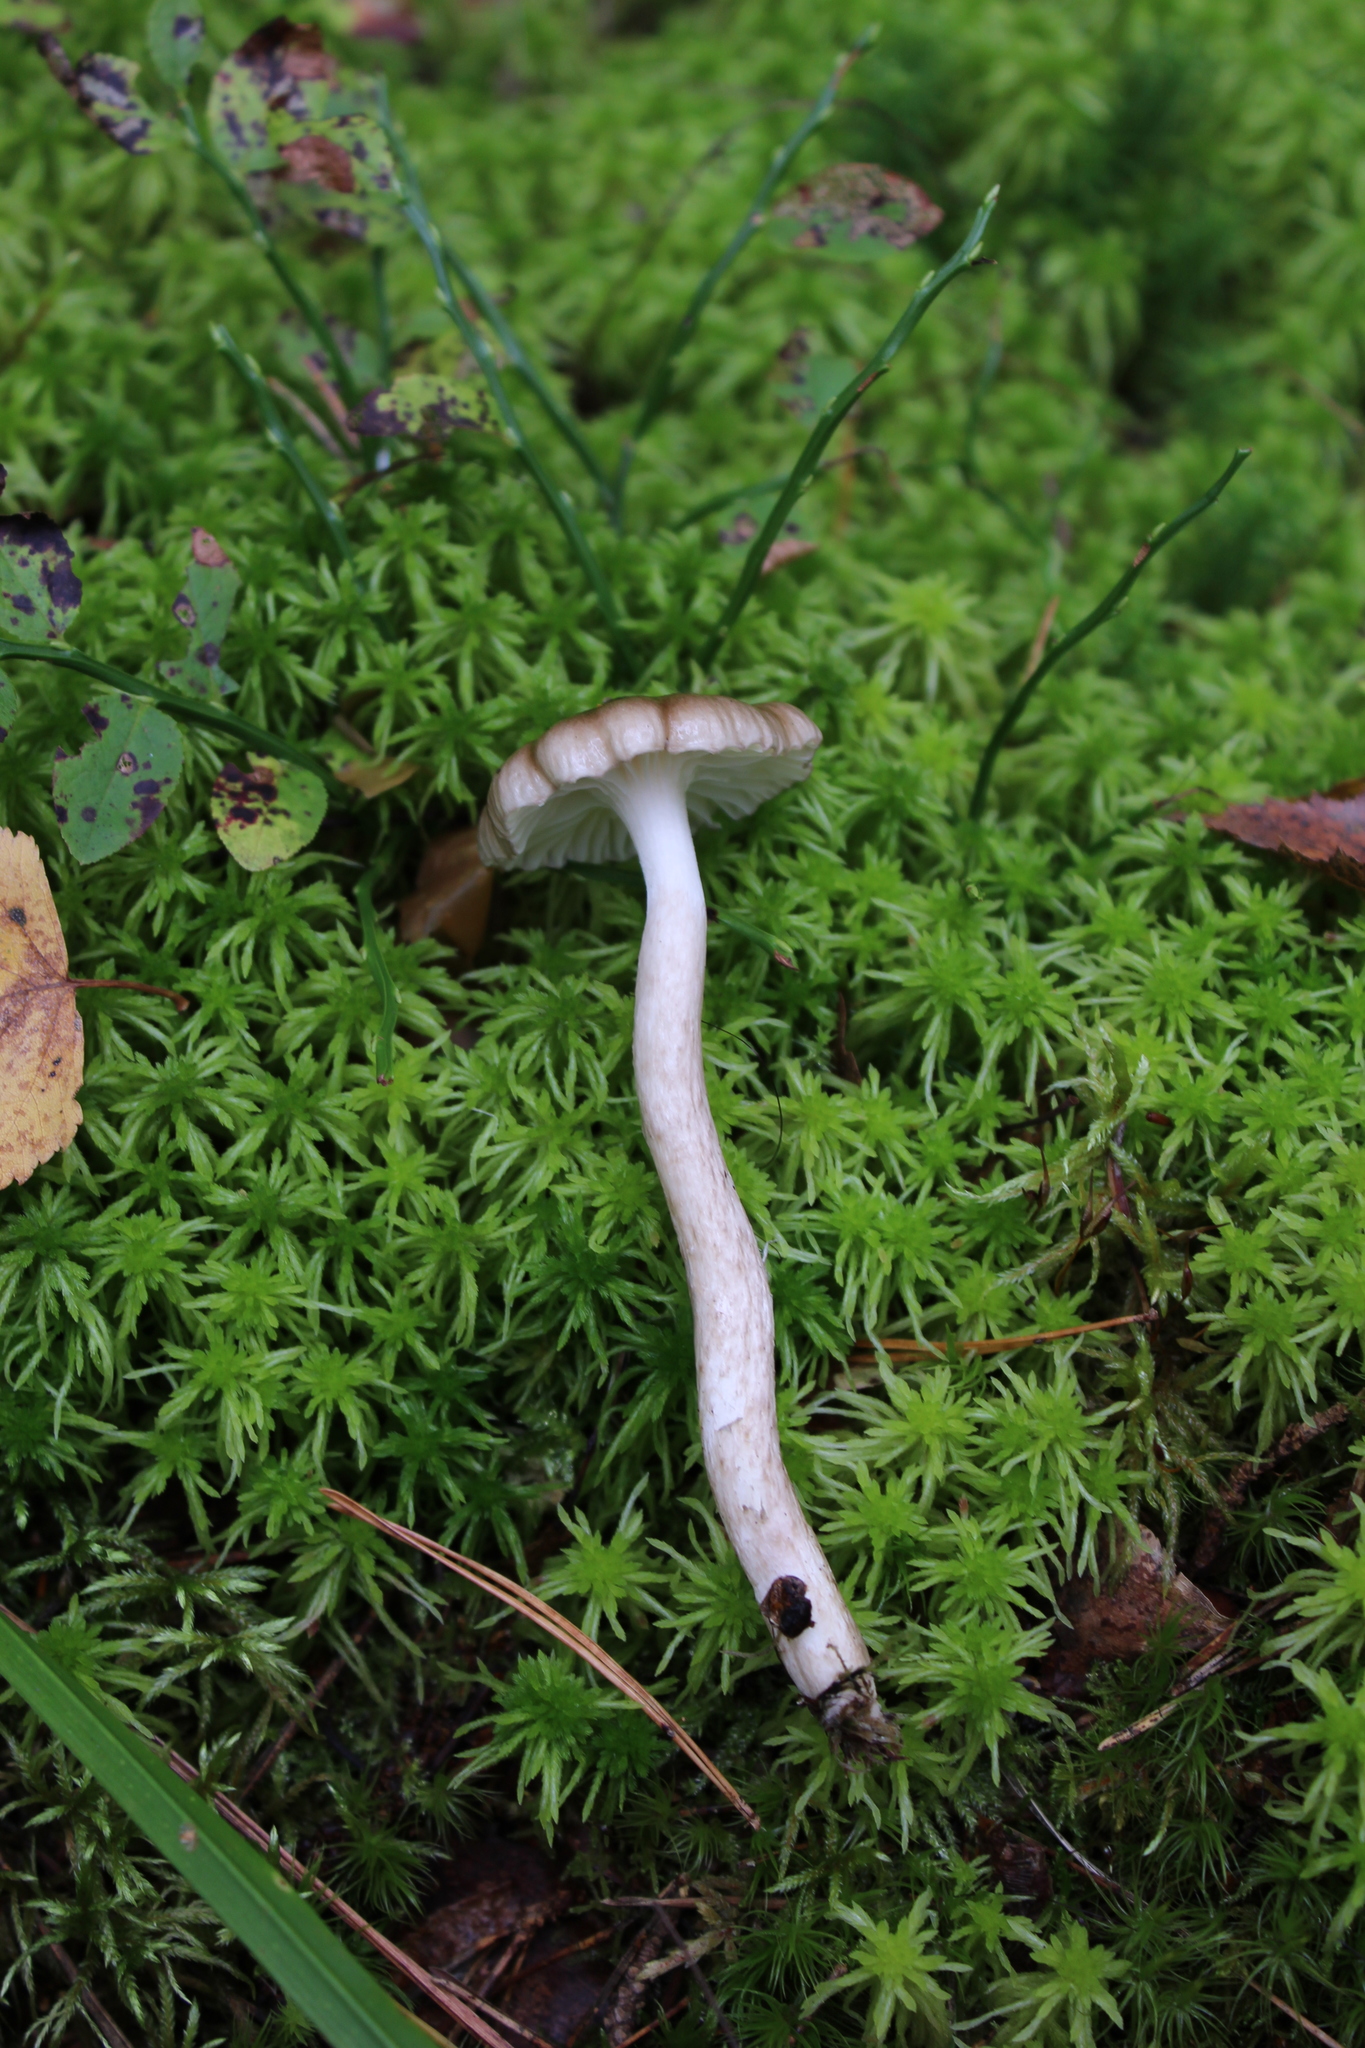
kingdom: Fungi
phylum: Basidiomycota
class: Agaricomycetes
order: Agaricales
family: Hygrophoraceae
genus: Hygrophorus
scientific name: Hygrophorus pustulatus
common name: Blistered woodwax
